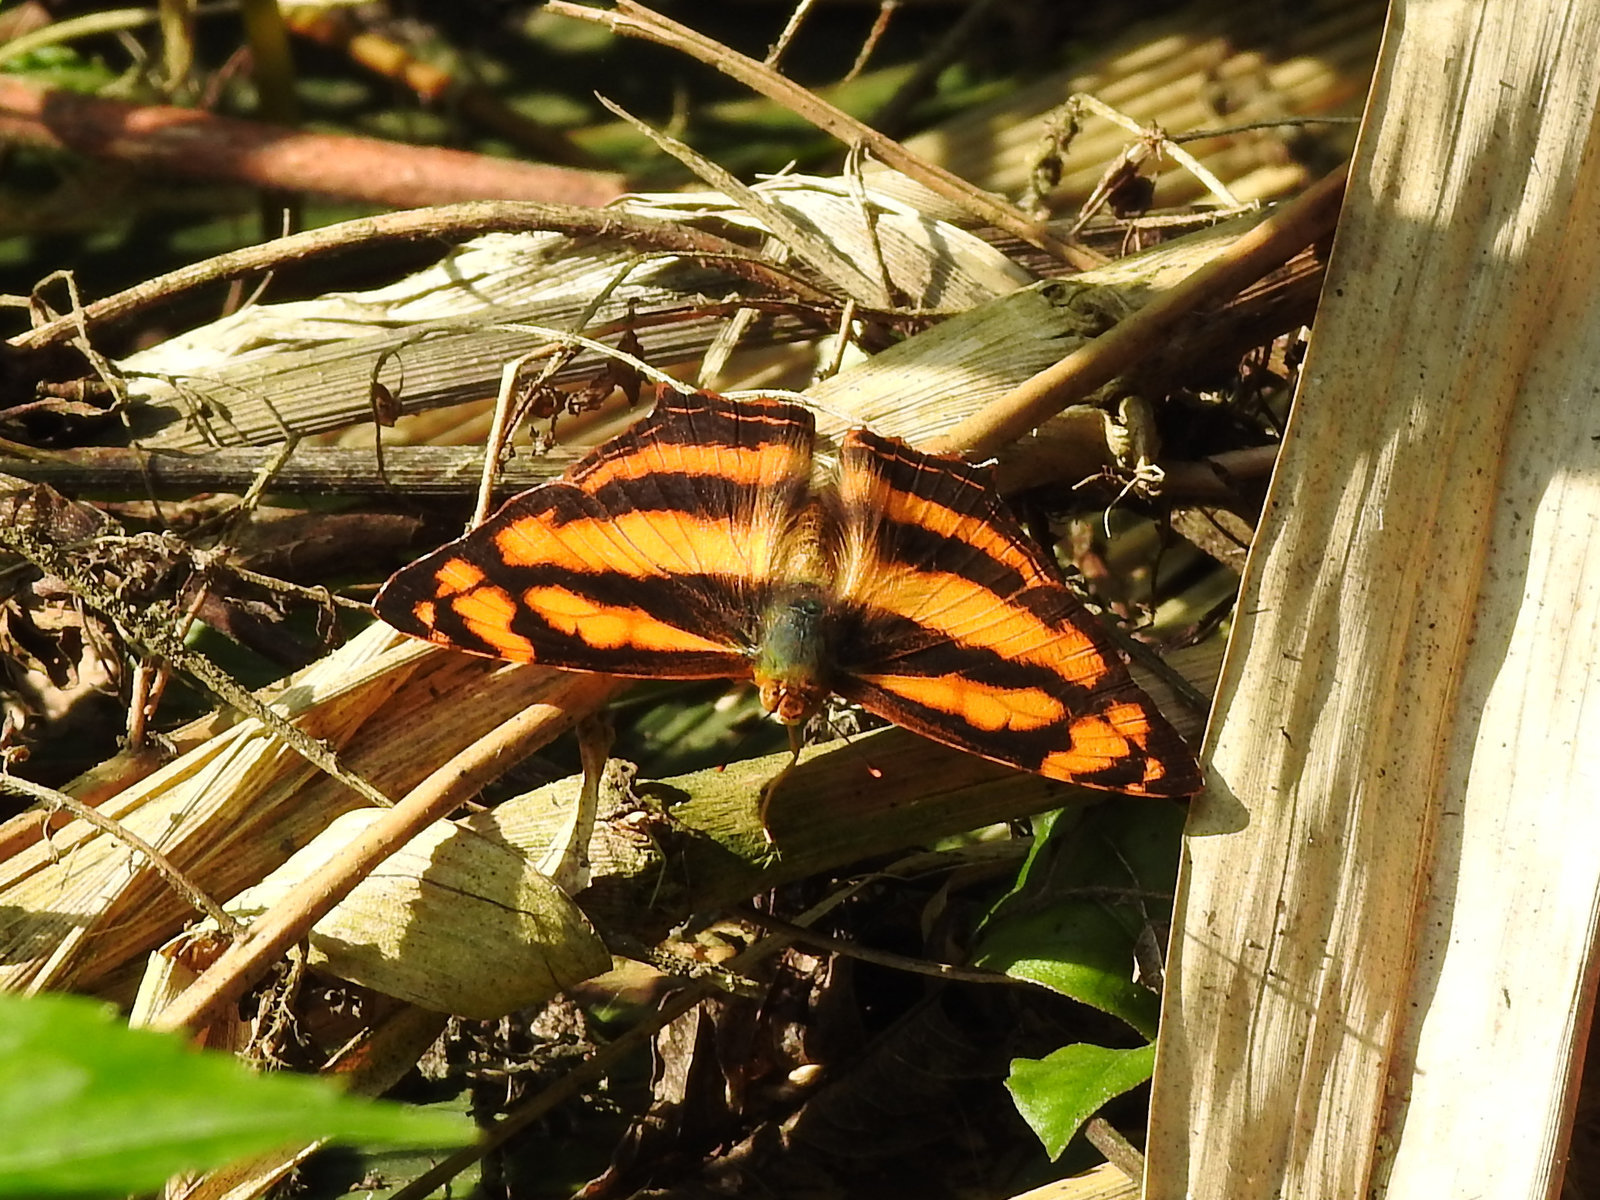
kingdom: Animalia
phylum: Arthropoda
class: Insecta
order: Lepidoptera
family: Nymphalidae
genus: Symbrenthia
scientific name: Symbrenthia hypselis
